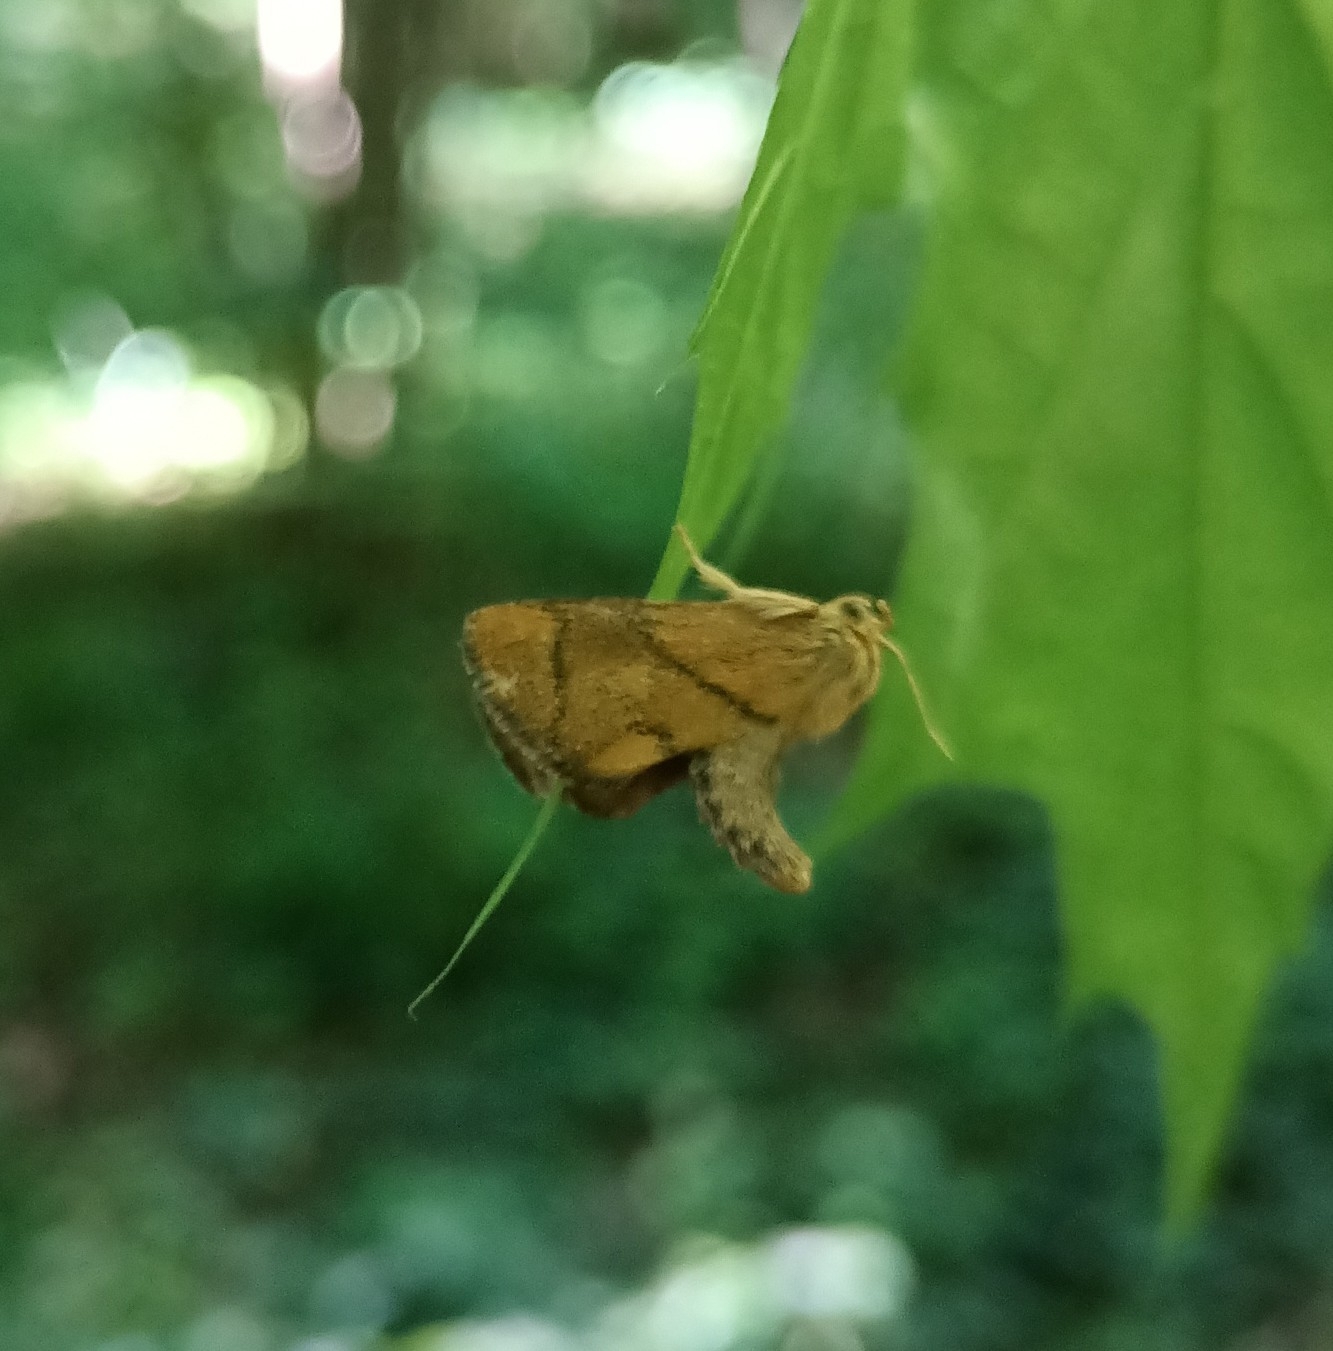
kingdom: Animalia
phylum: Arthropoda
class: Insecta
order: Lepidoptera
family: Limacodidae
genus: Apoda
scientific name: Apoda limacodes
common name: Festoon
